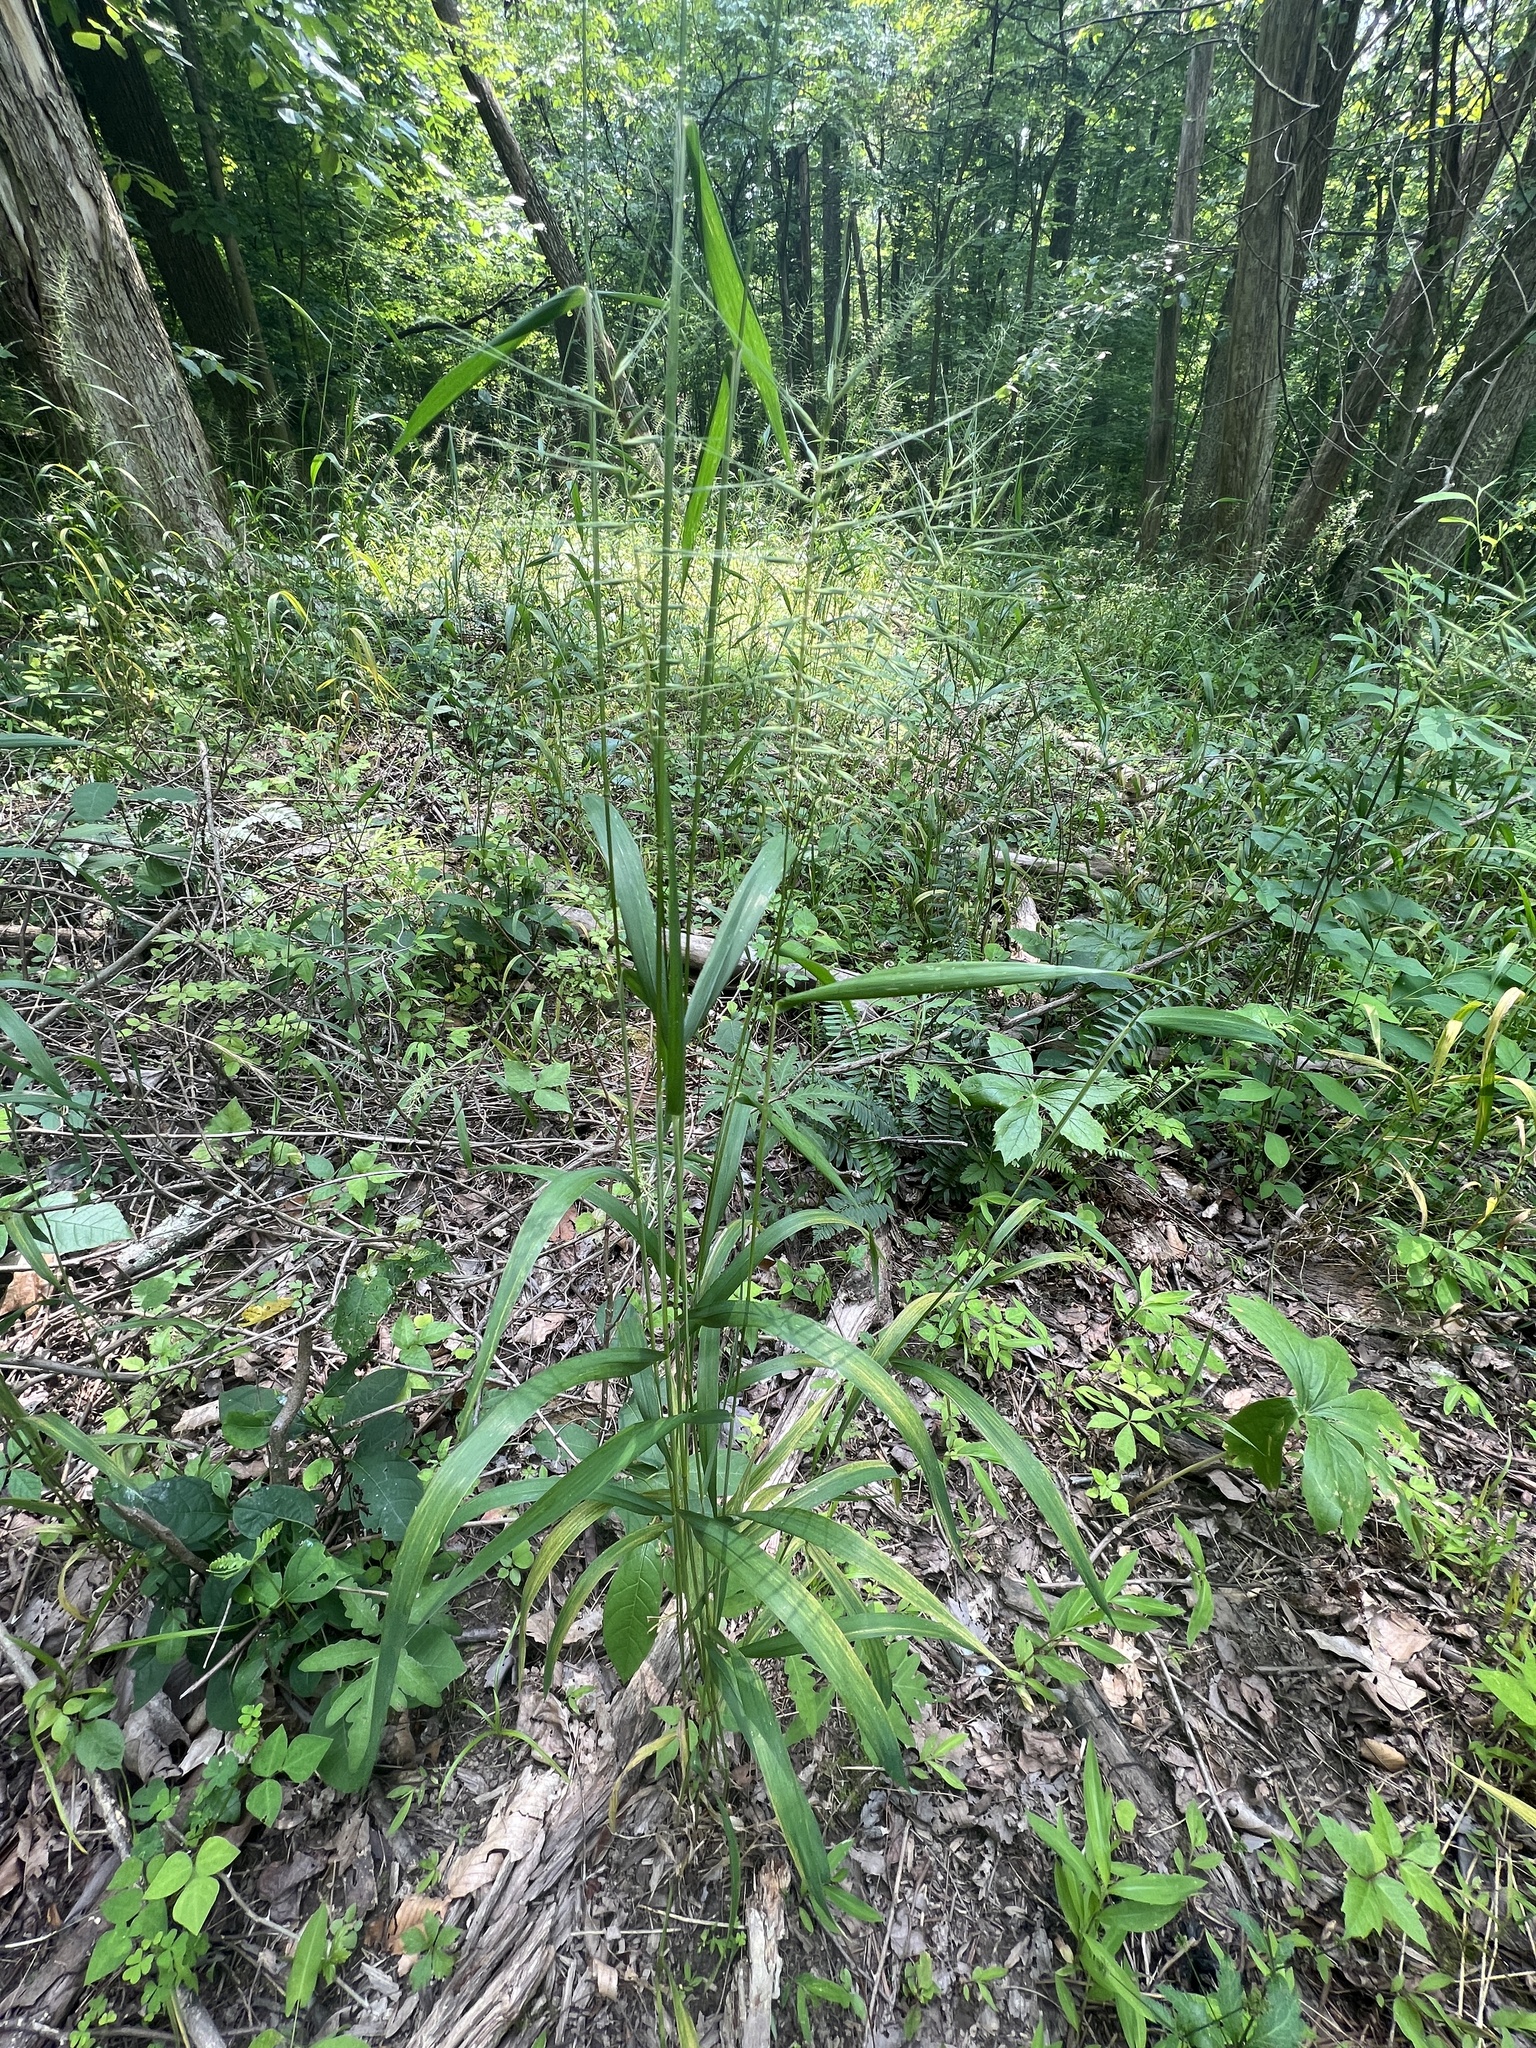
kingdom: Plantae
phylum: Tracheophyta
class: Liliopsida
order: Poales
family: Poaceae
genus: Elymus
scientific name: Elymus hystrix
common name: Bottlebrush grass
